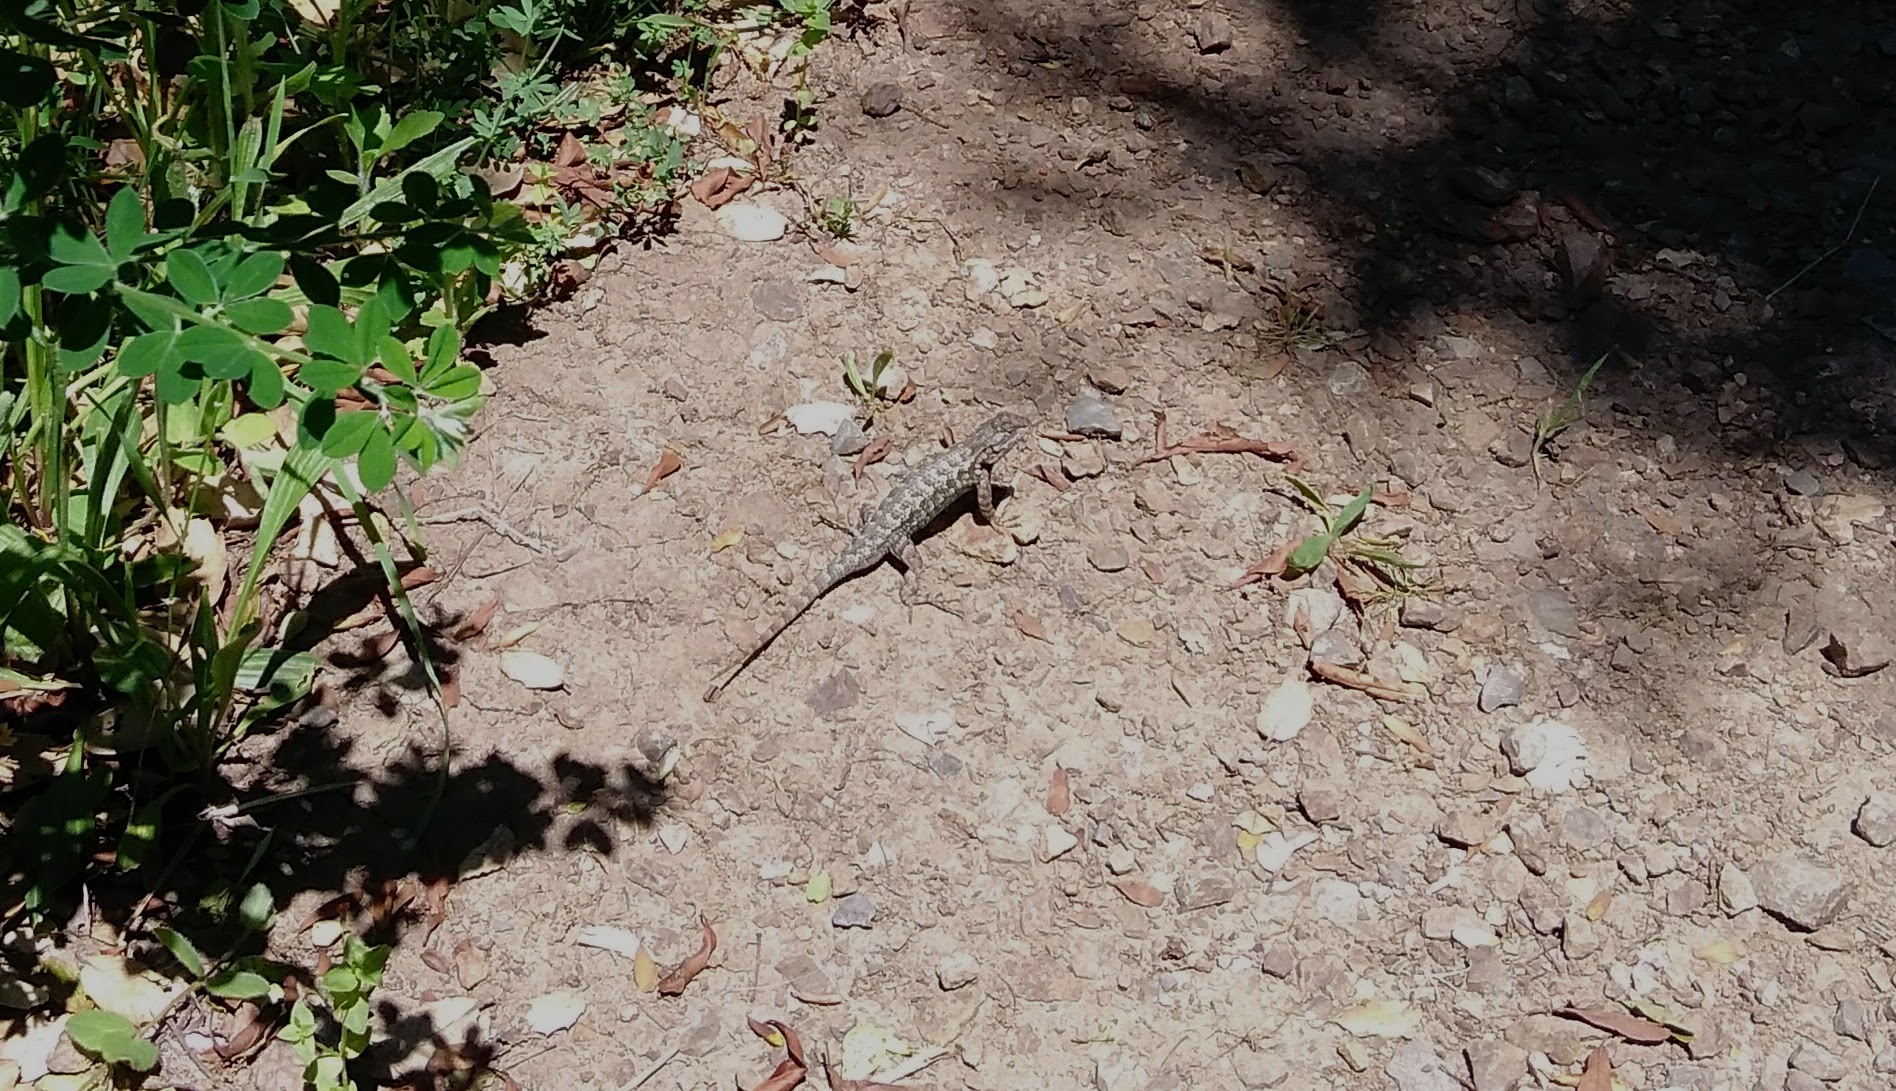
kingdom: Animalia
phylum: Chordata
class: Squamata
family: Phrynosomatidae
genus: Sceloporus
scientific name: Sceloporus occidentalis
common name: Western fence lizard
